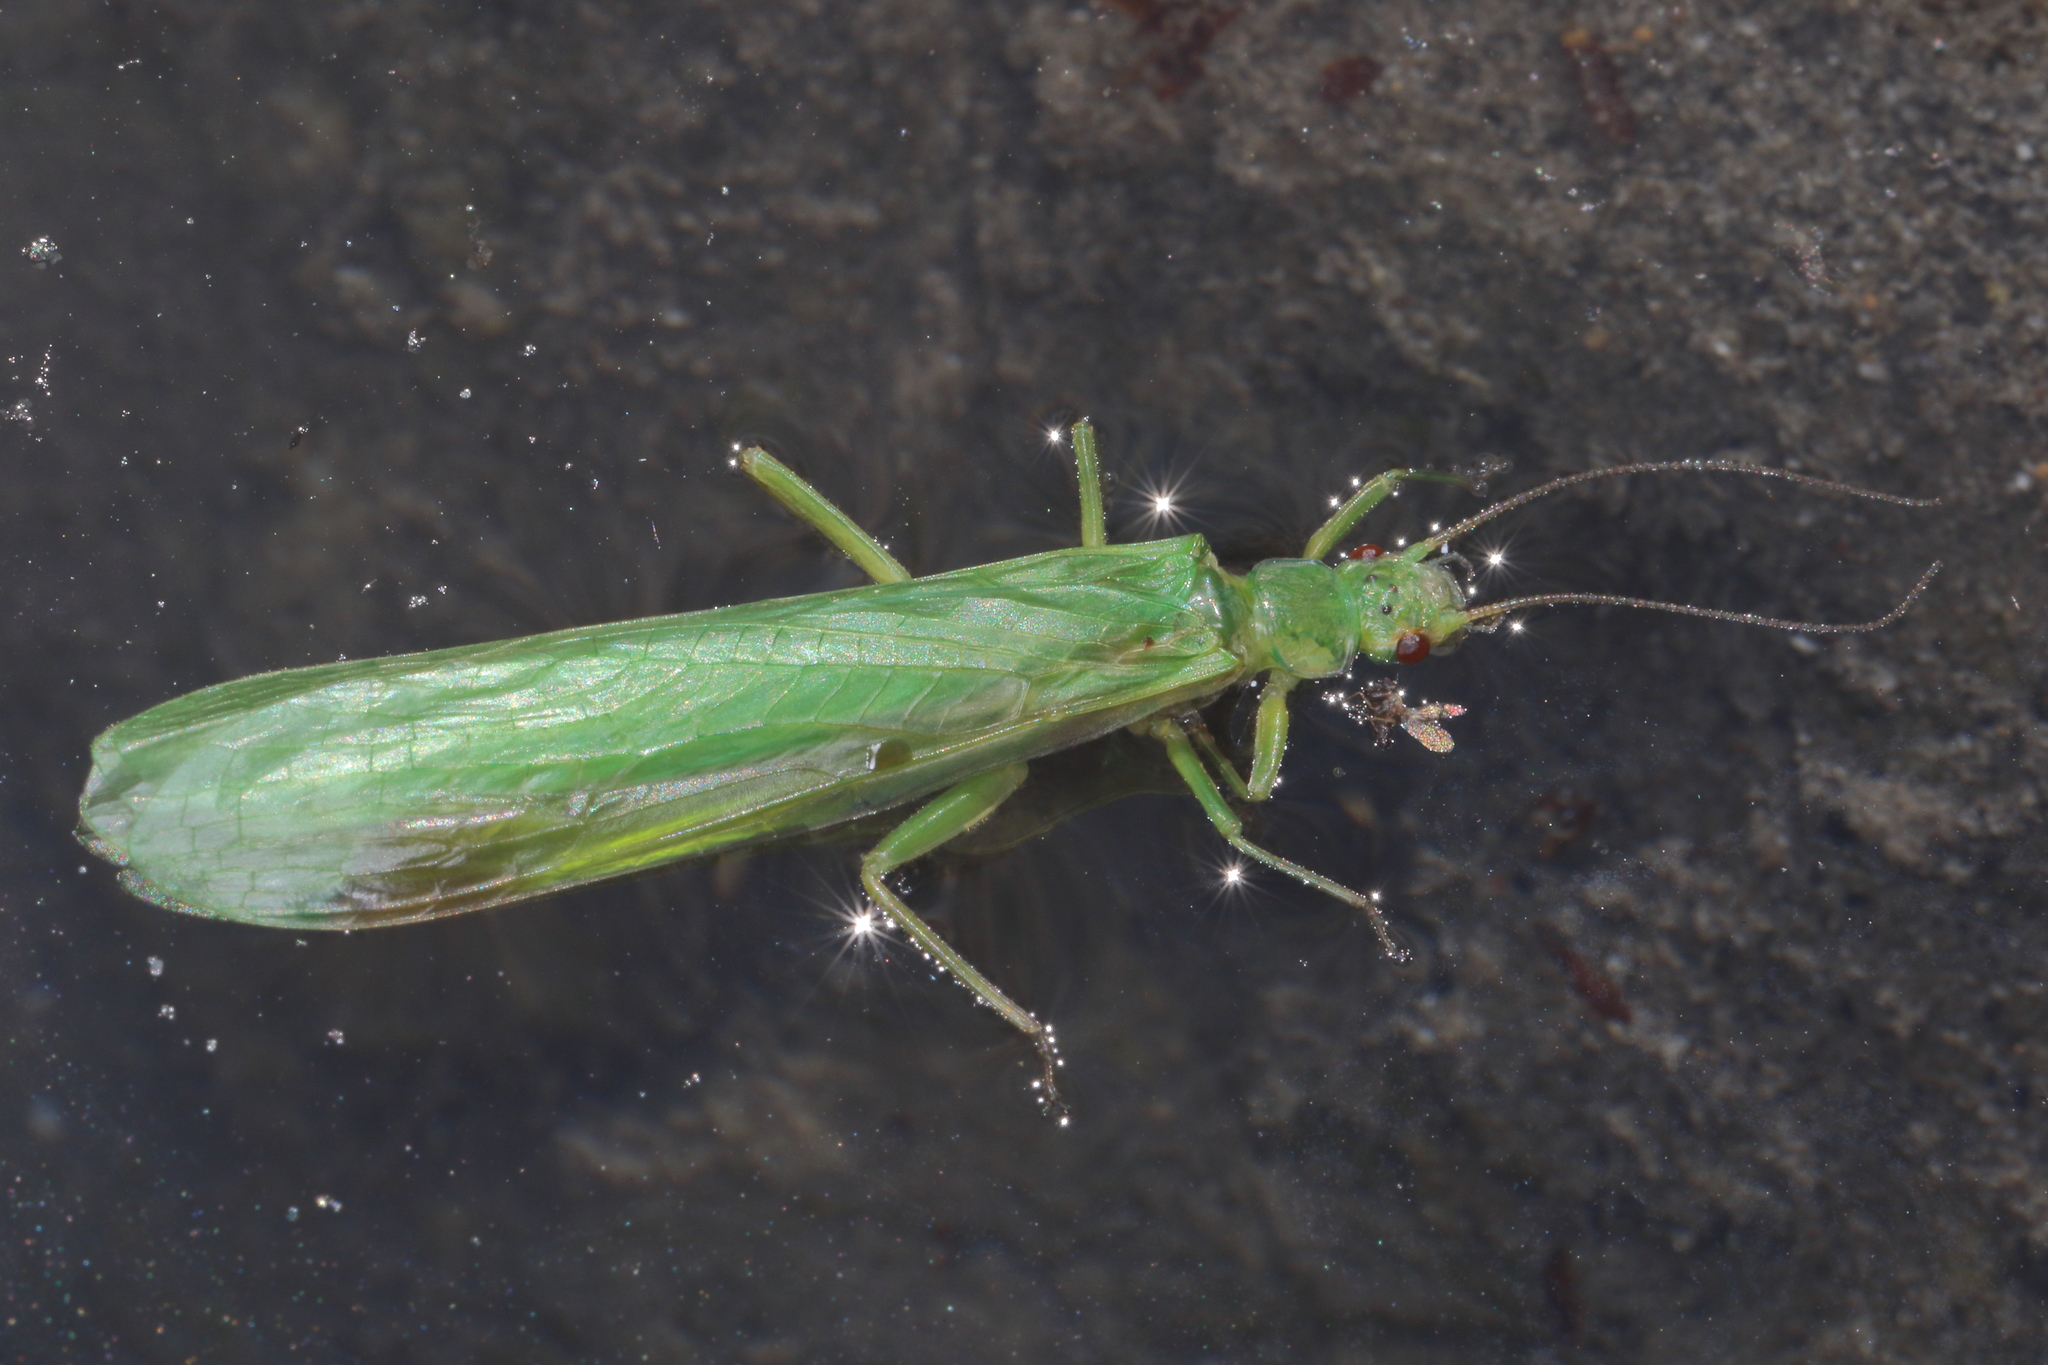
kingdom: Animalia
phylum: Arthropoda
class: Insecta
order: Plecoptera
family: Eustheniidae
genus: Stenoperla
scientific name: Stenoperla prasina
